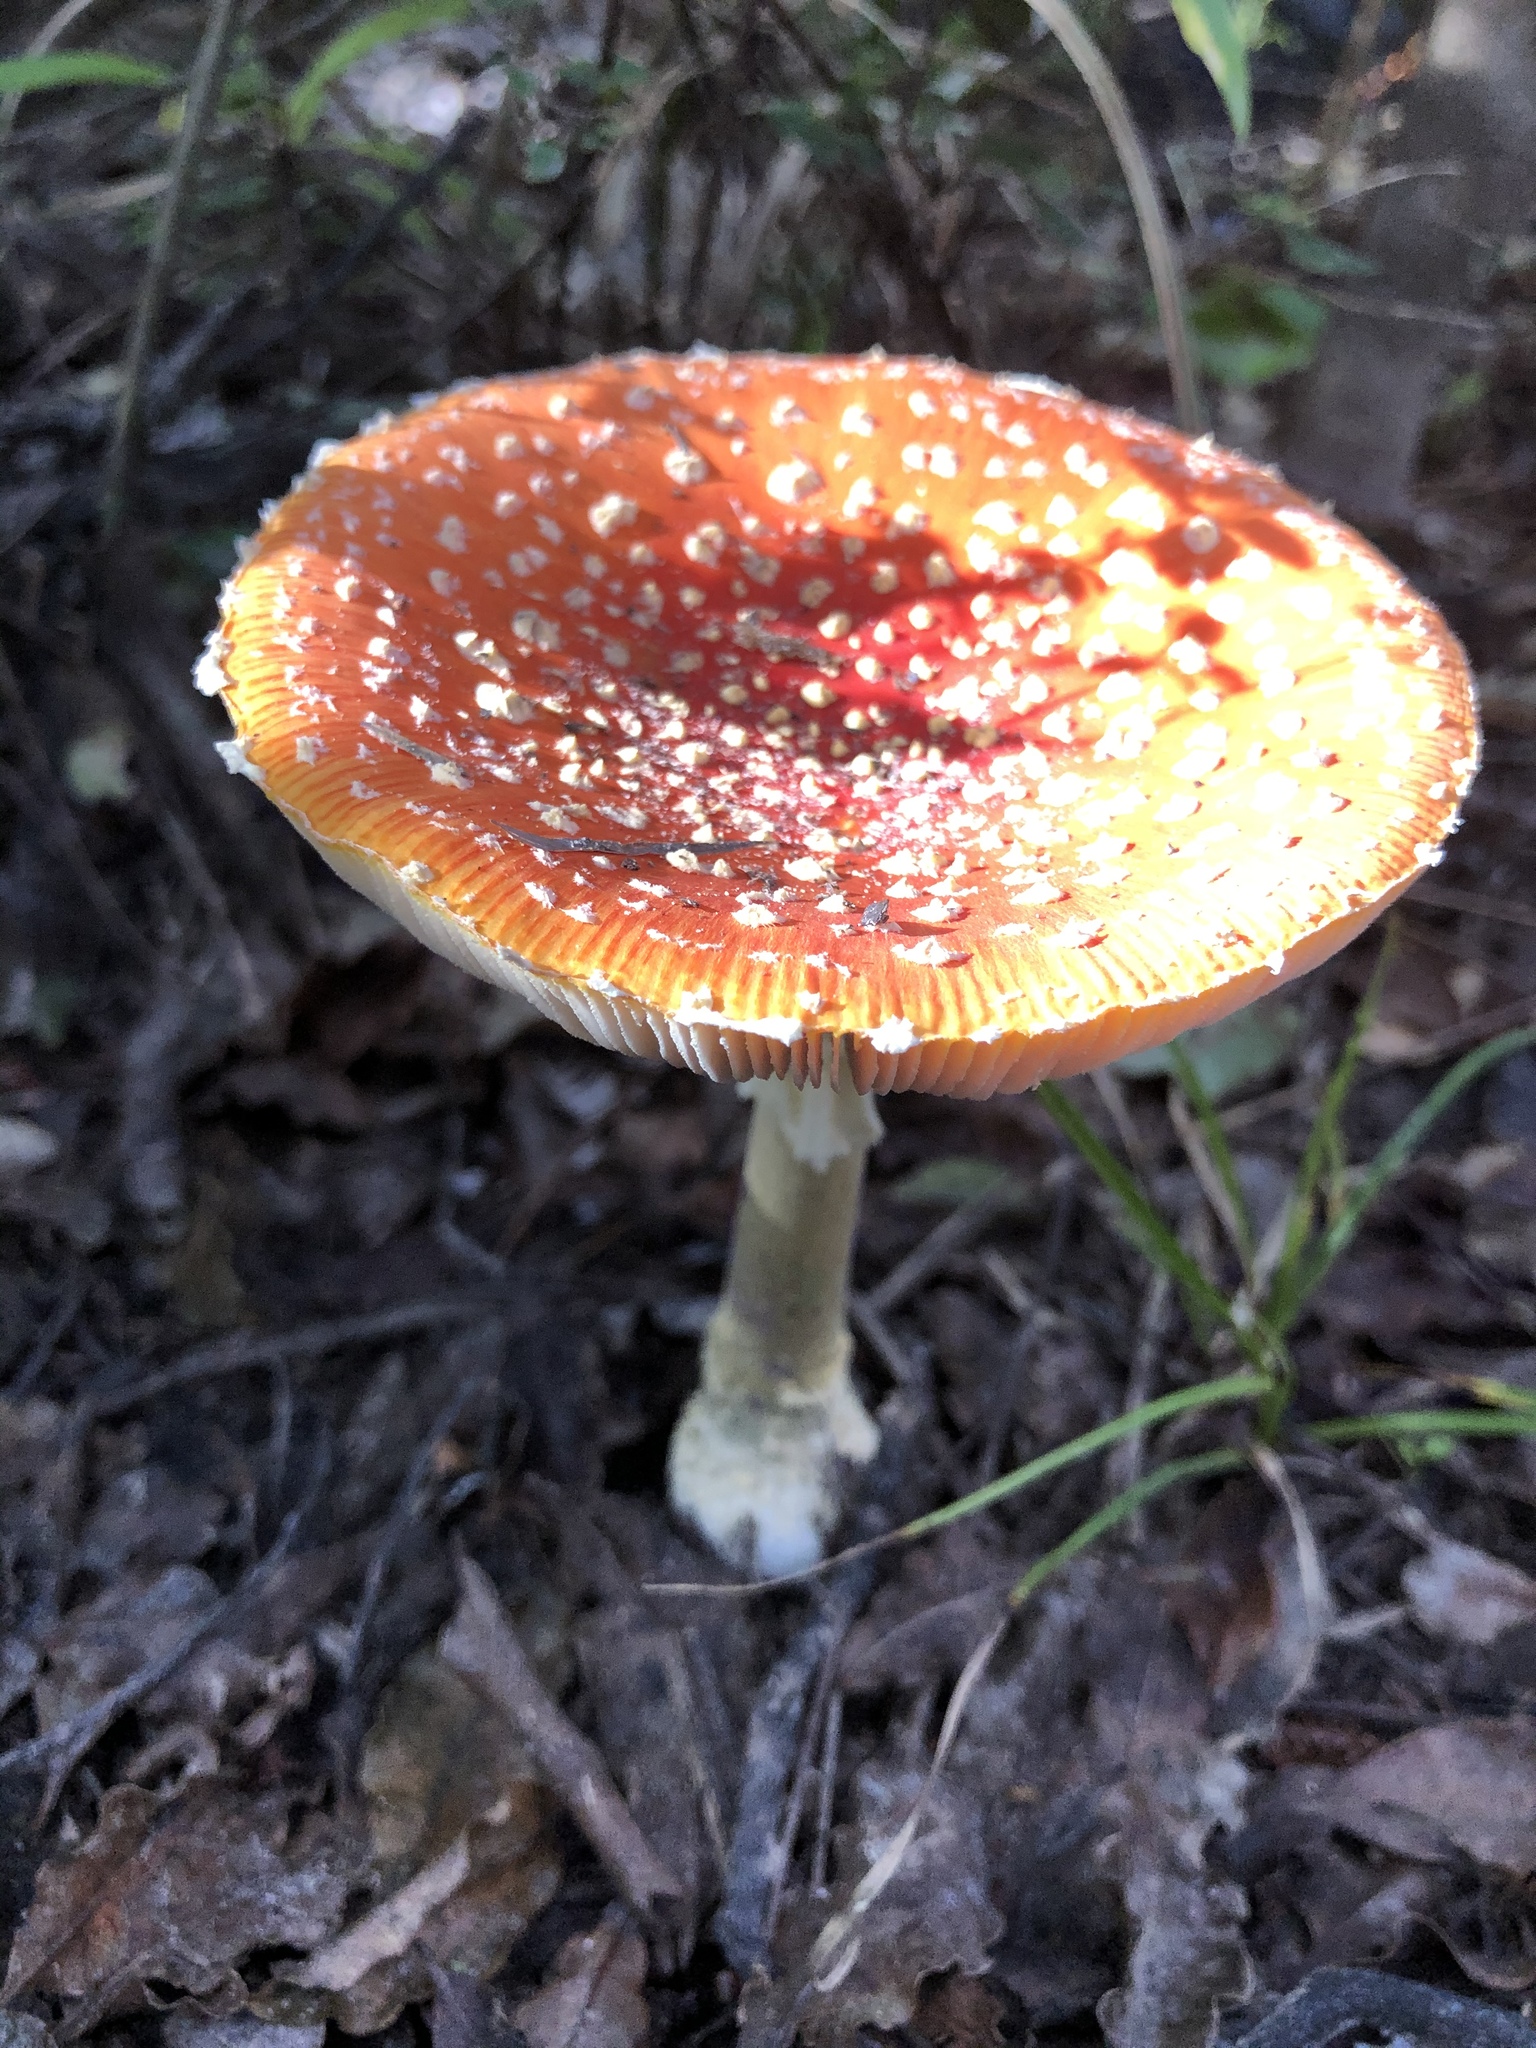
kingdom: Fungi
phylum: Basidiomycota
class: Agaricomycetes
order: Agaricales
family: Amanitaceae
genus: Amanita
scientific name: Amanita muscaria
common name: Fly agaric
